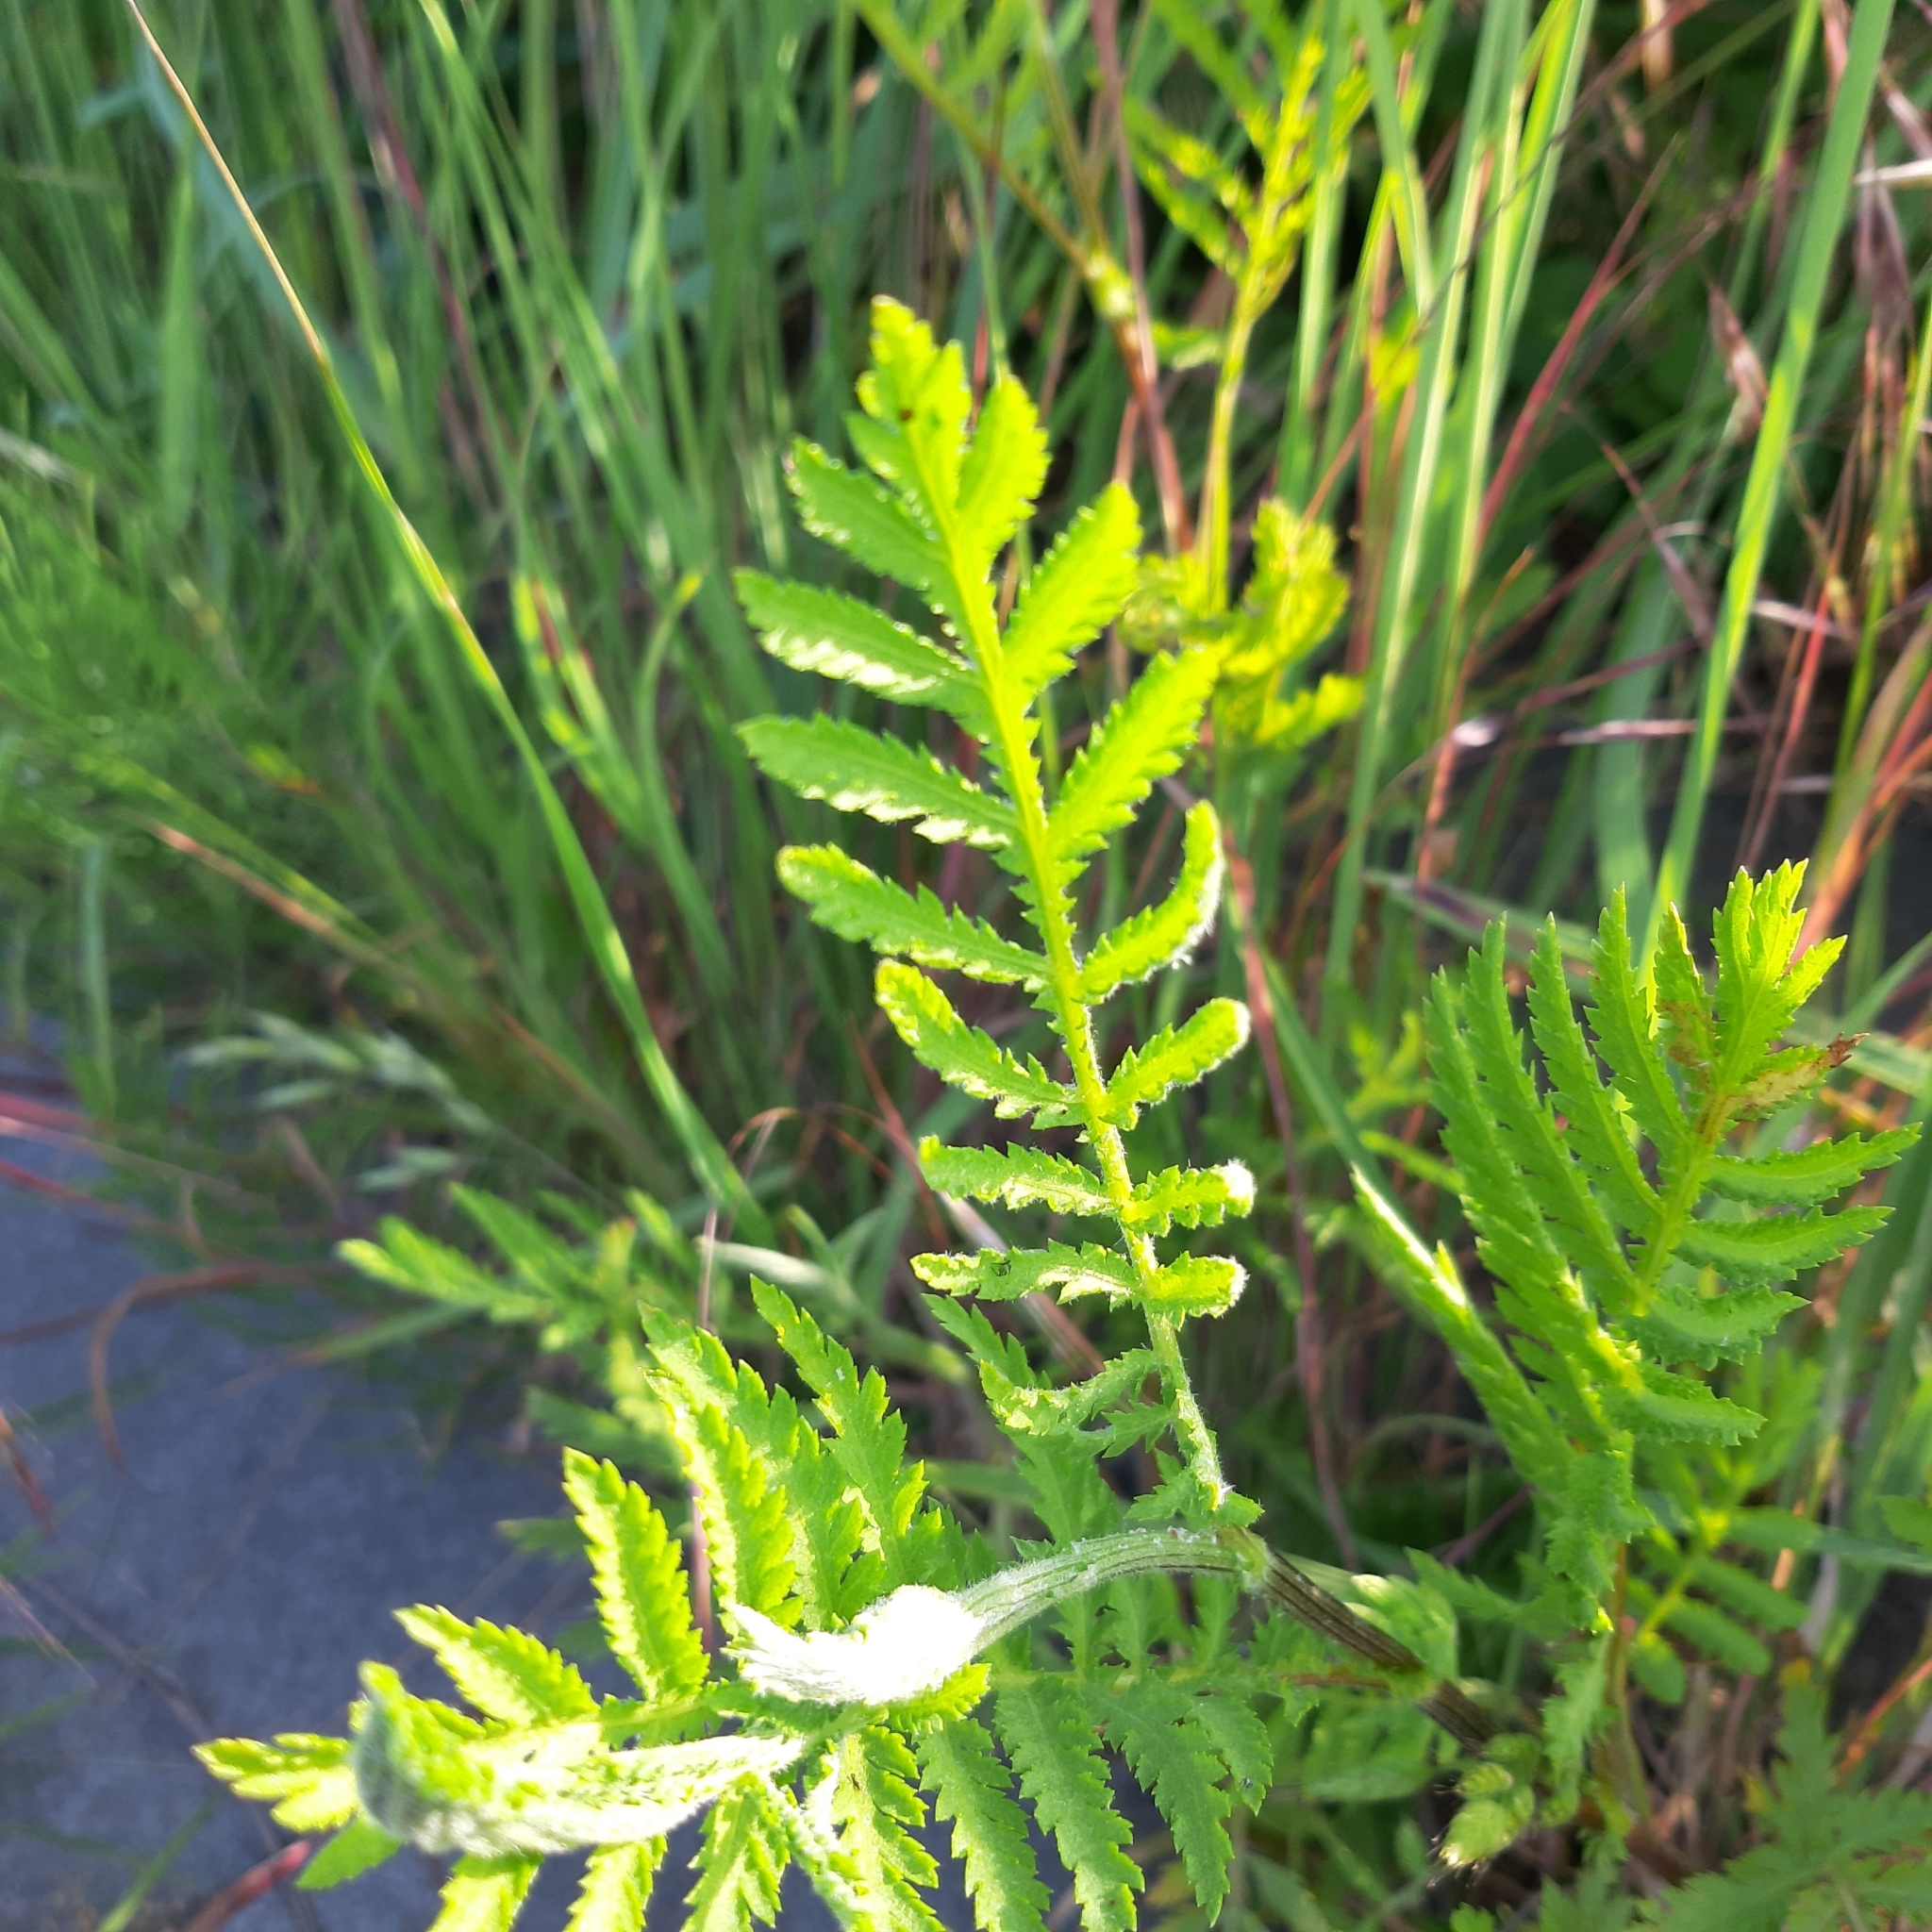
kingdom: Plantae
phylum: Tracheophyta
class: Magnoliopsida
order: Asterales
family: Asteraceae
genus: Tanacetum
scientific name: Tanacetum vulgare
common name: Common tansy
